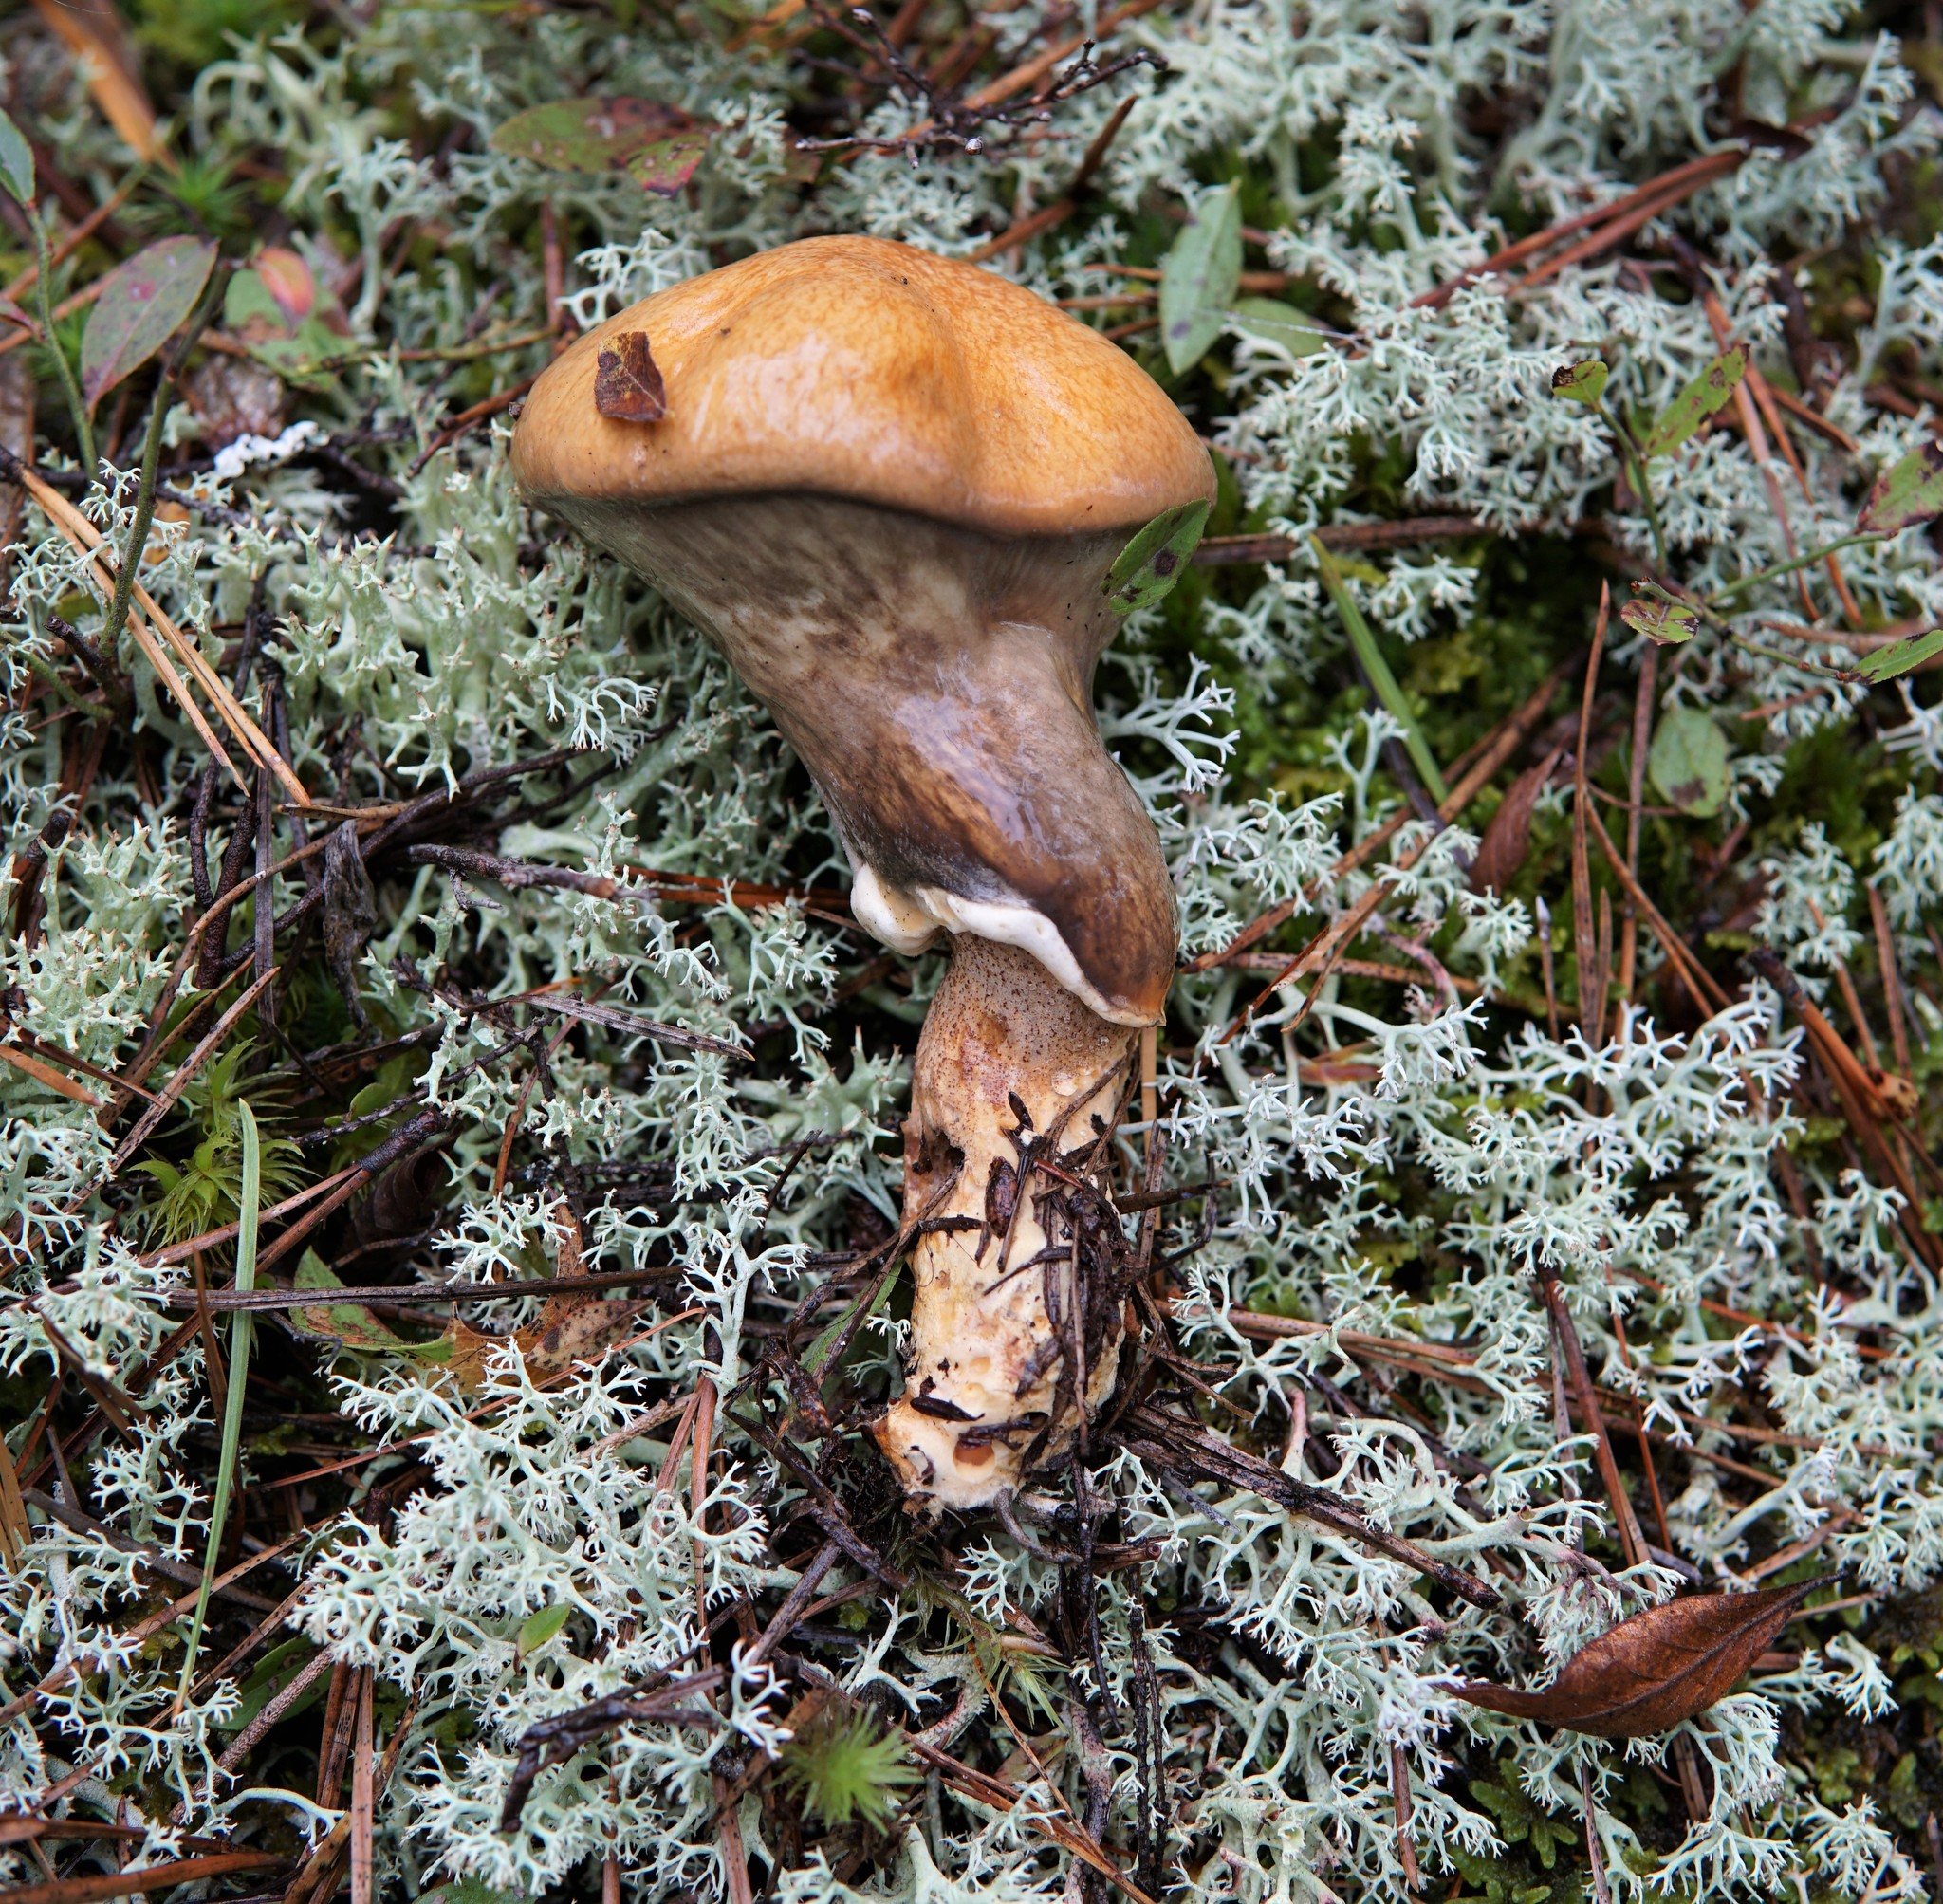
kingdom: Fungi
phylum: Basidiomycota
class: Agaricomycetes
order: Boletales
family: Suillaceae
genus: Suillus
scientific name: Suillus salmonicolor
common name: Slippery jill
